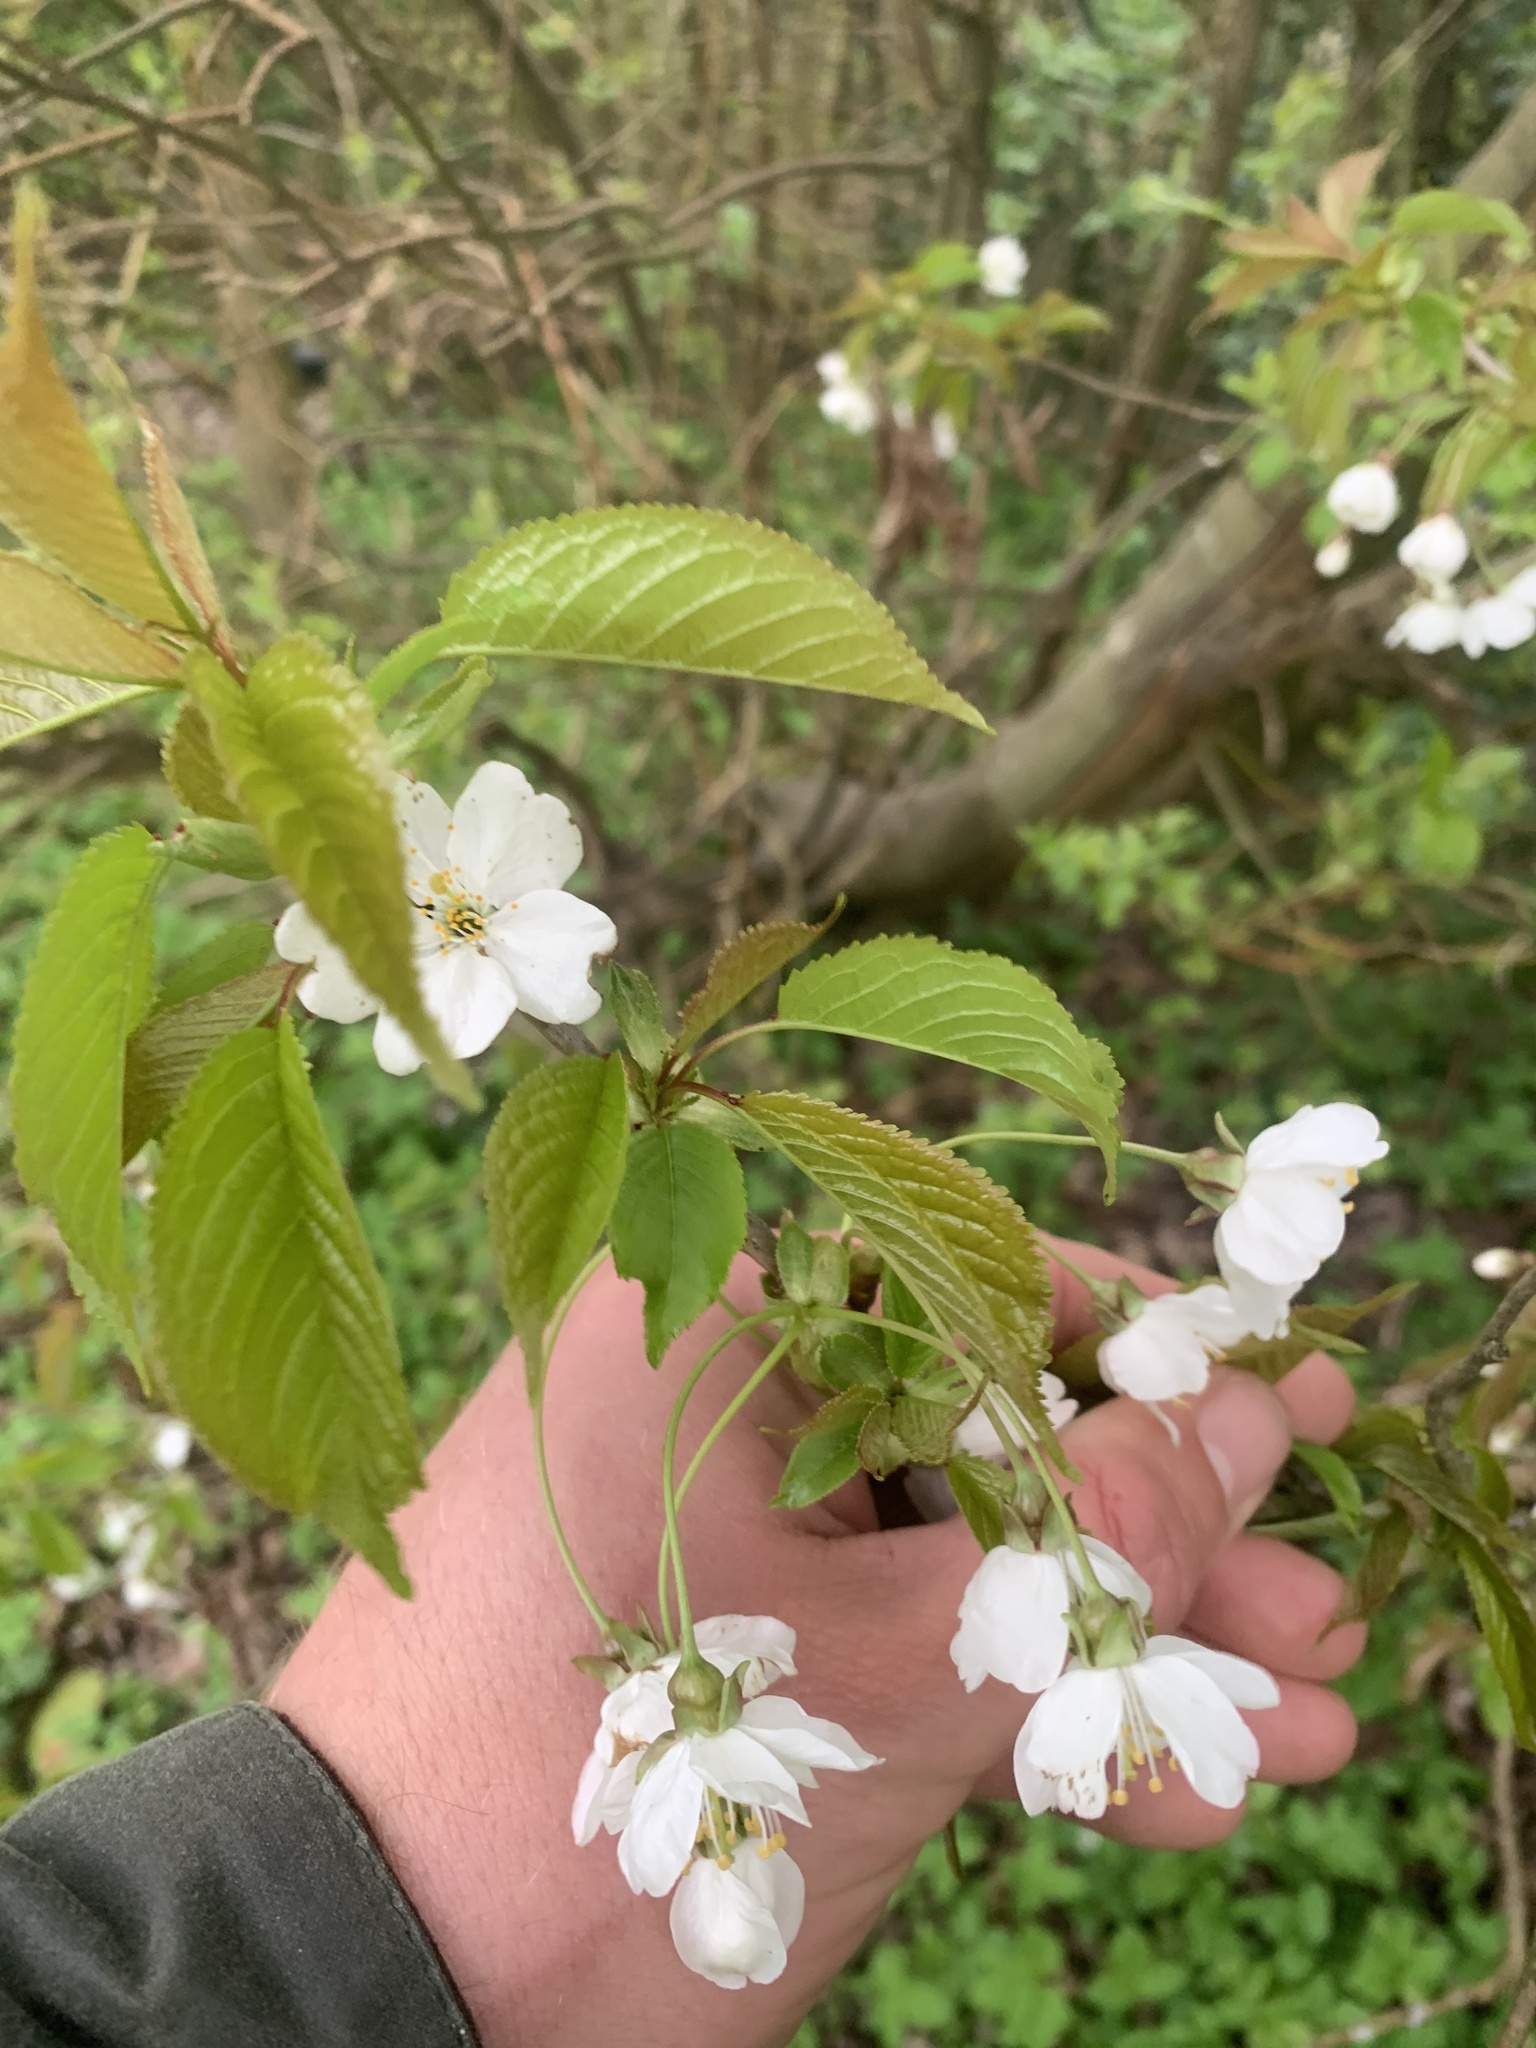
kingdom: Plantae
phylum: Tracheophyta
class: Magnoliopsida
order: Rosales
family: Rosaceae
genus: Prunus
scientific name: Prunus avium
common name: Sweet cherry
